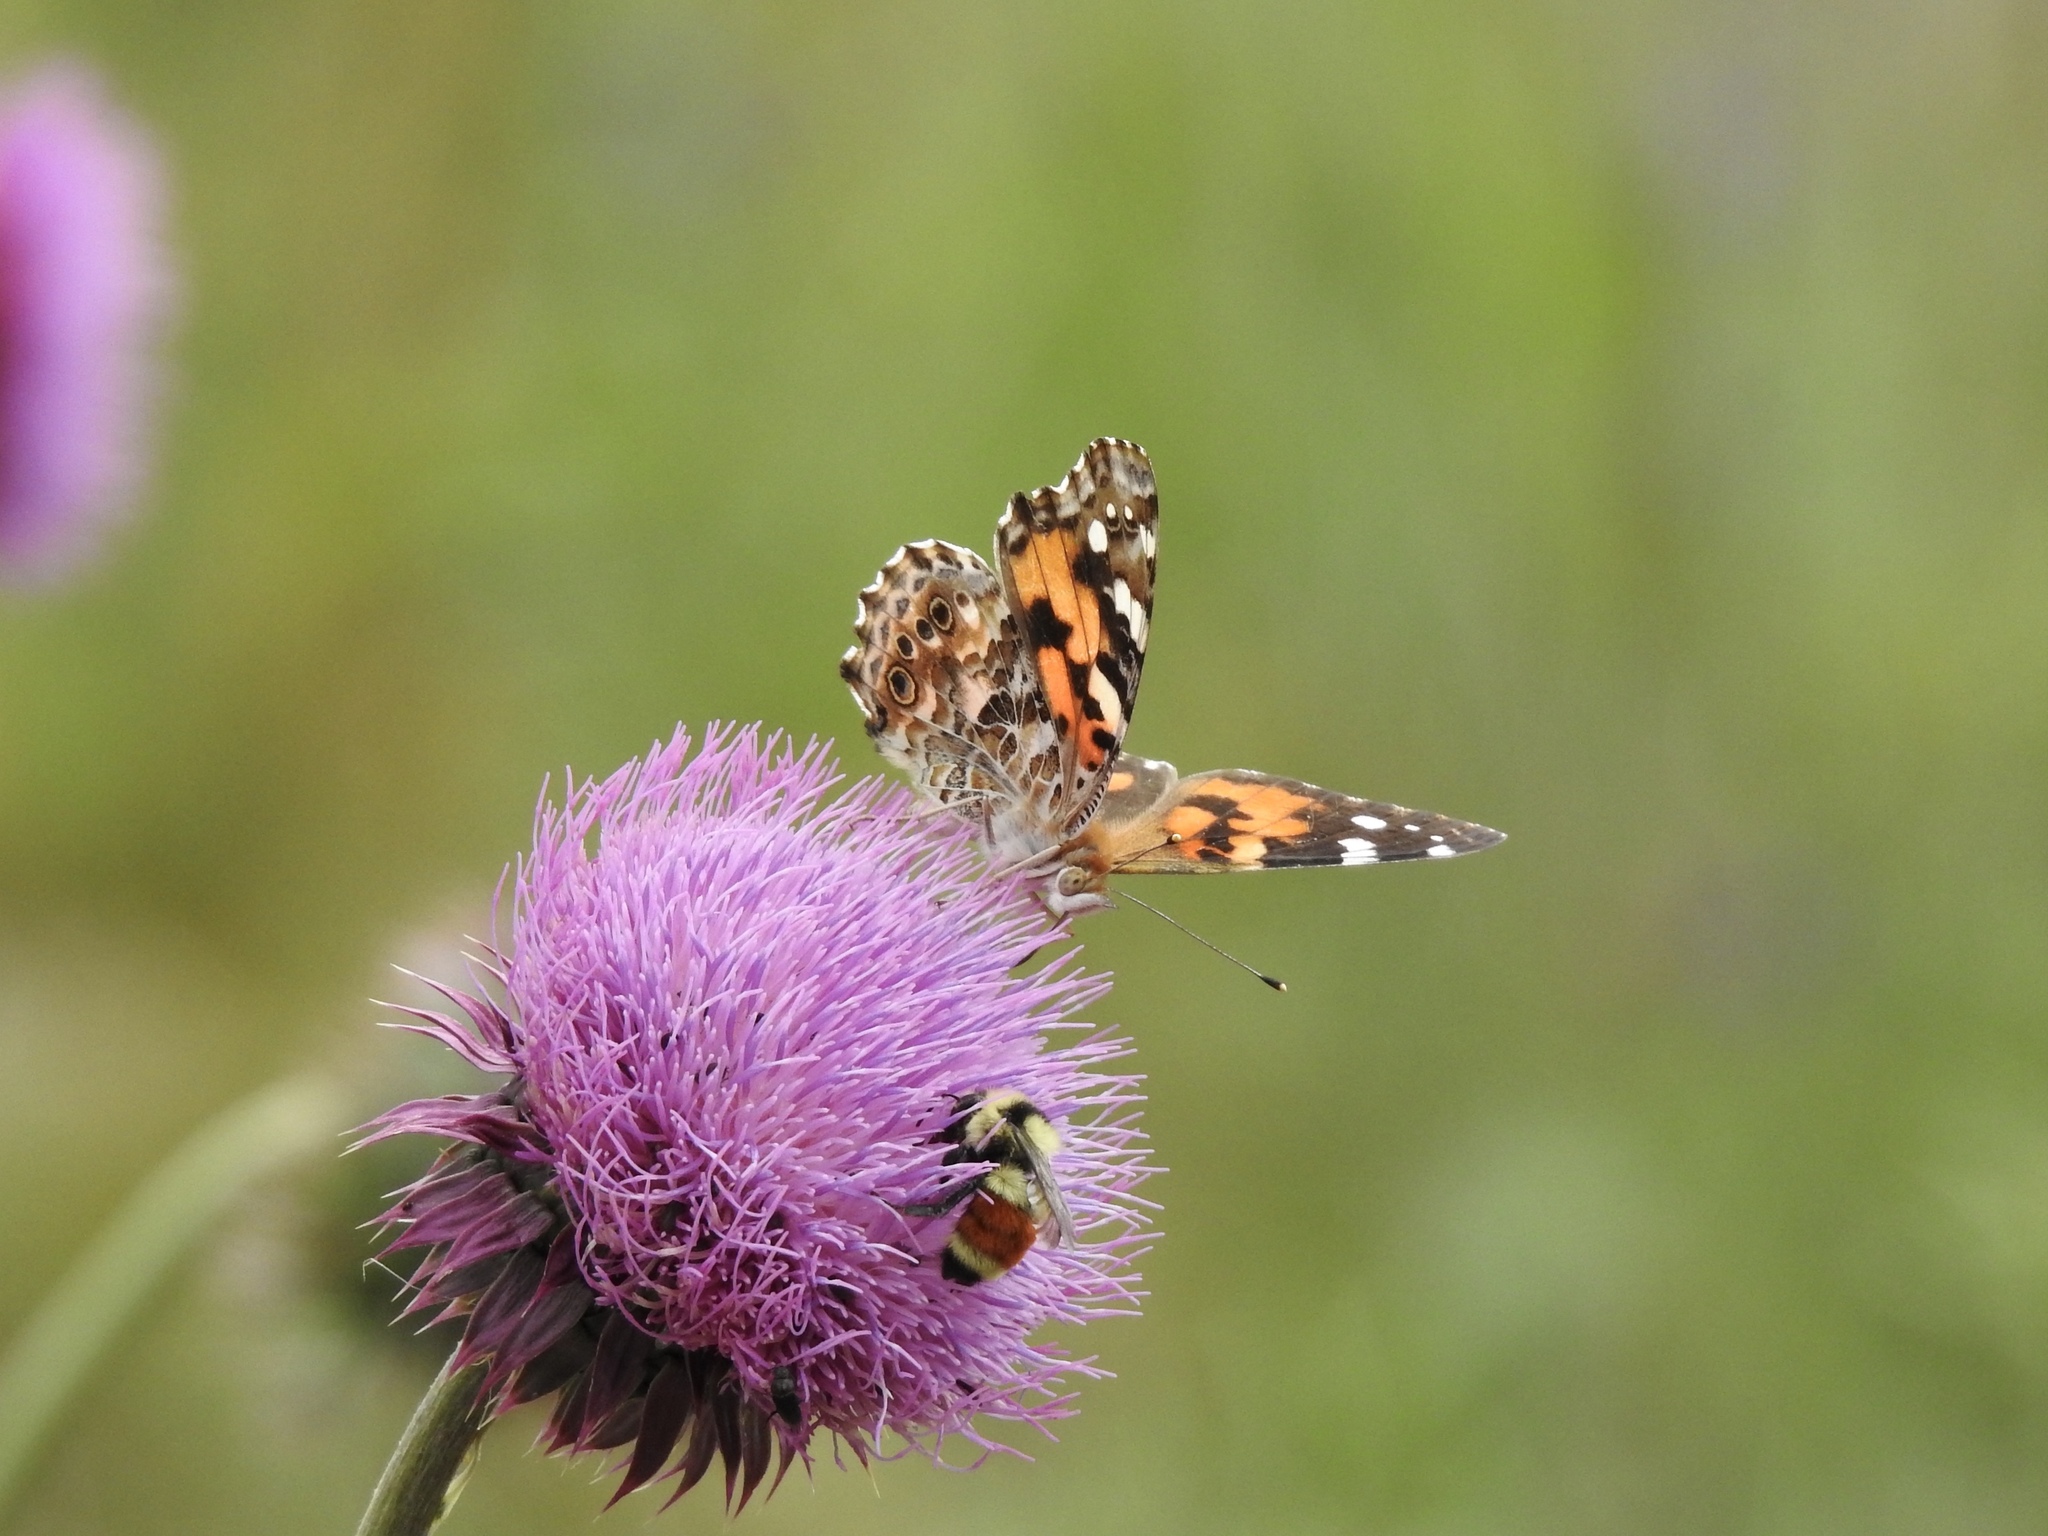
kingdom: Animalia
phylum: Arthropoda
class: Insecta
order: Hymenoptera
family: Apidae
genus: Bombus
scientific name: Bombus huntii
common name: Hunt bumble bee
